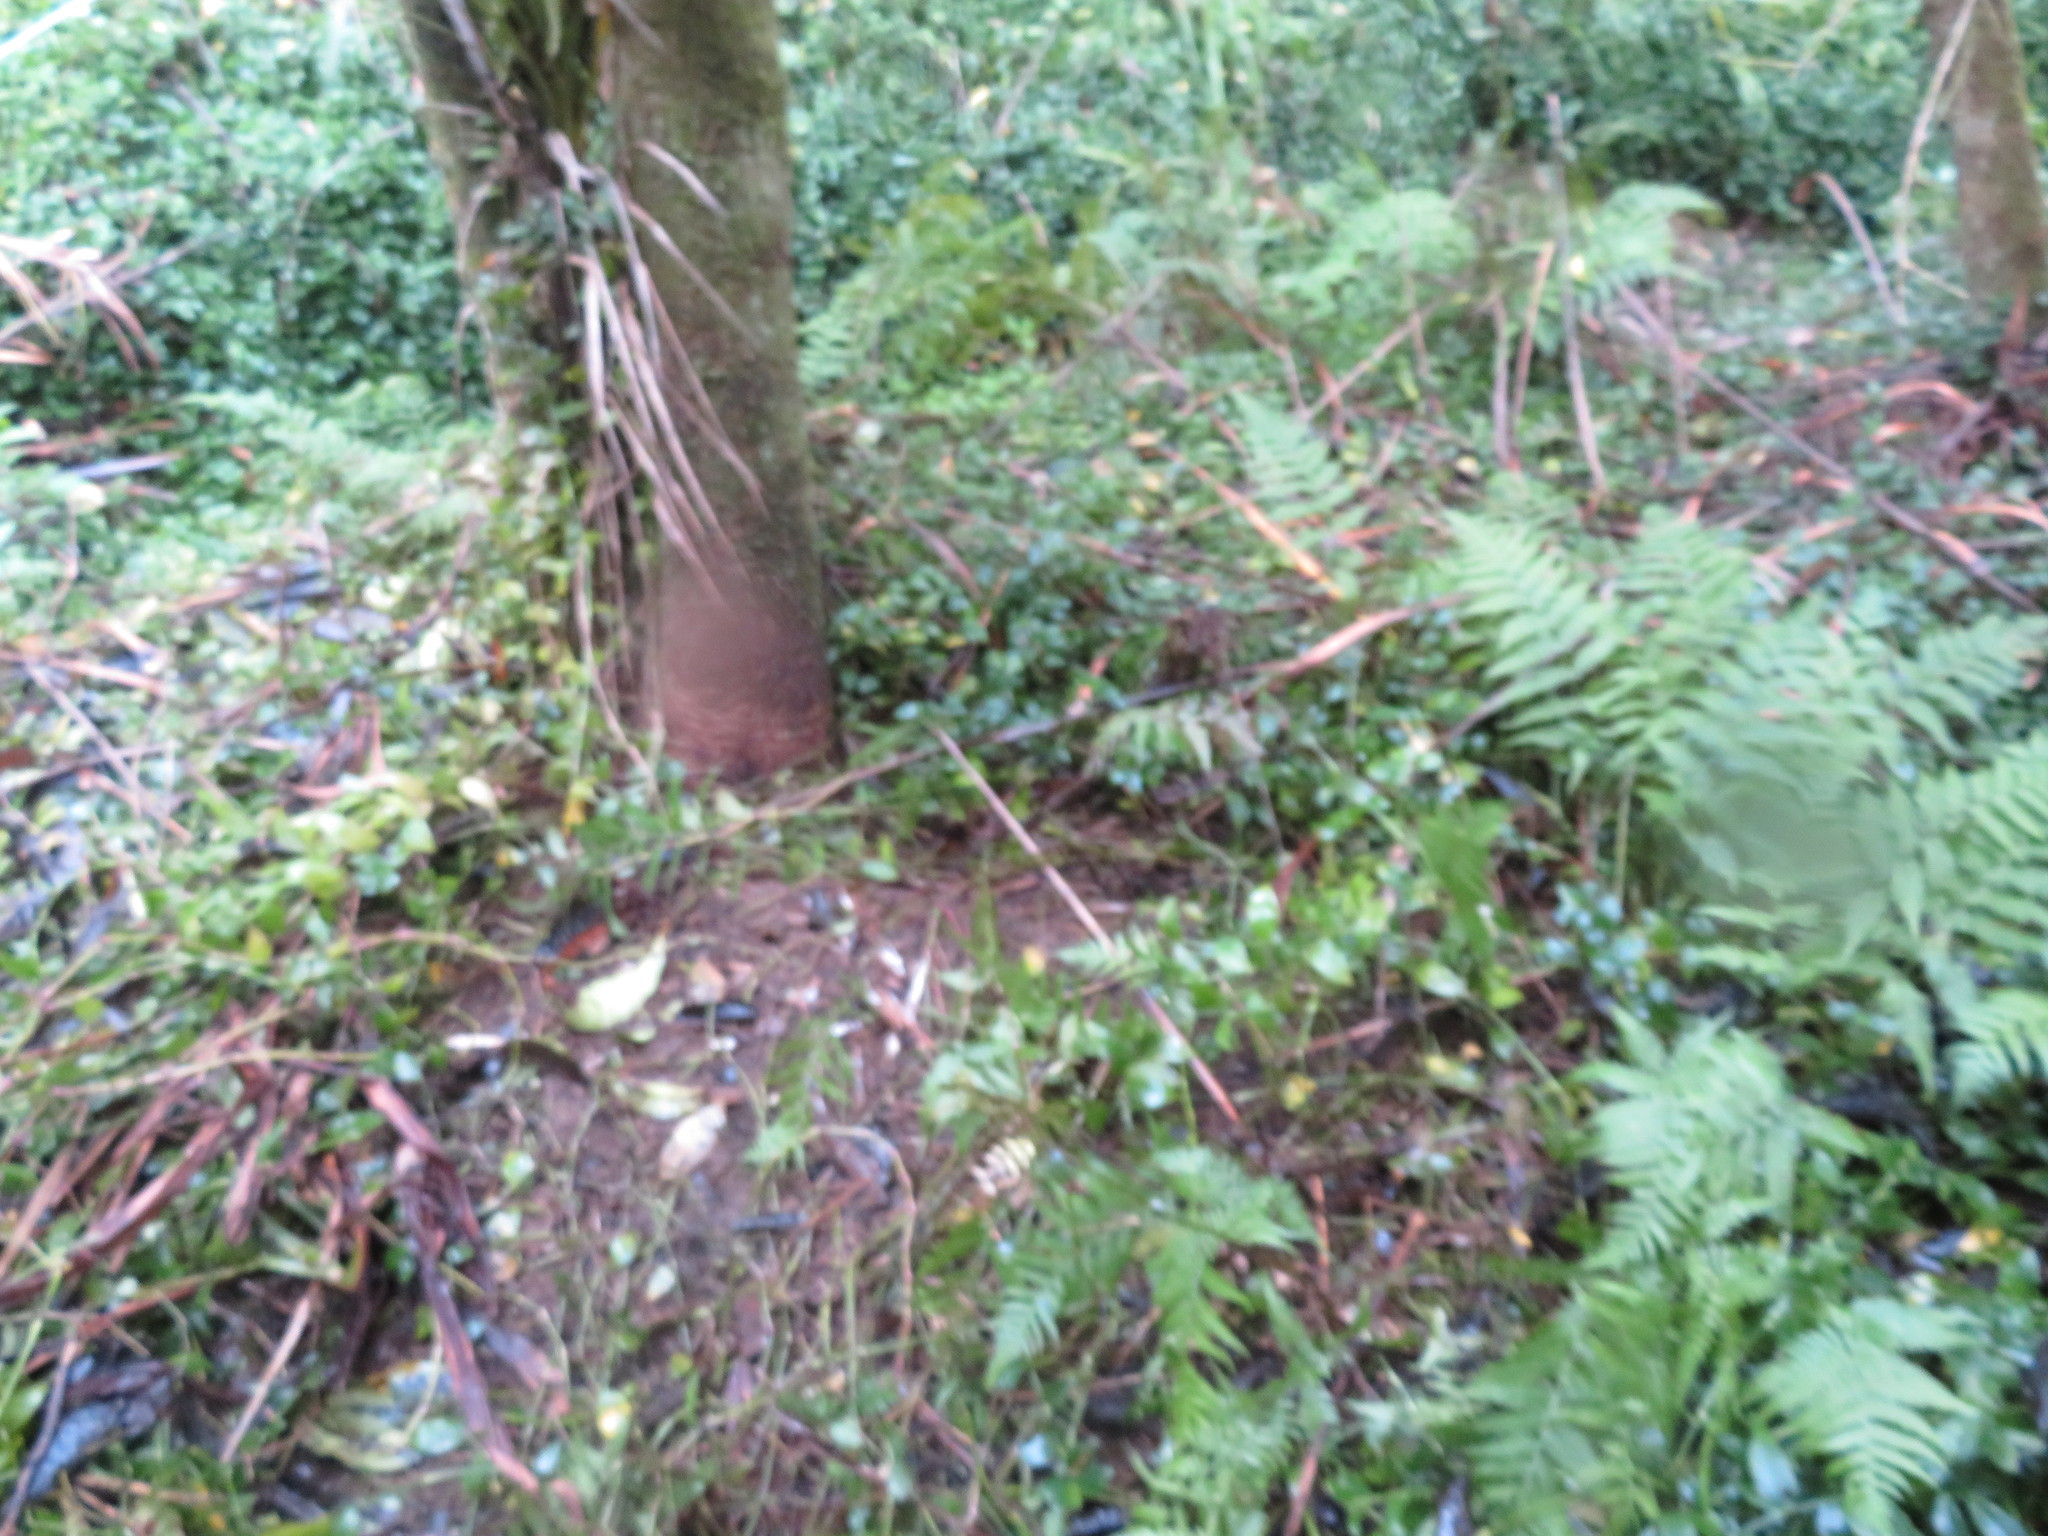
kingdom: Plantae
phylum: Tracheophyta
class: Polypodiopsida
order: Polypodiales
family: Athyriaceae
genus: Diplazium
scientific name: Diplazium congruum
